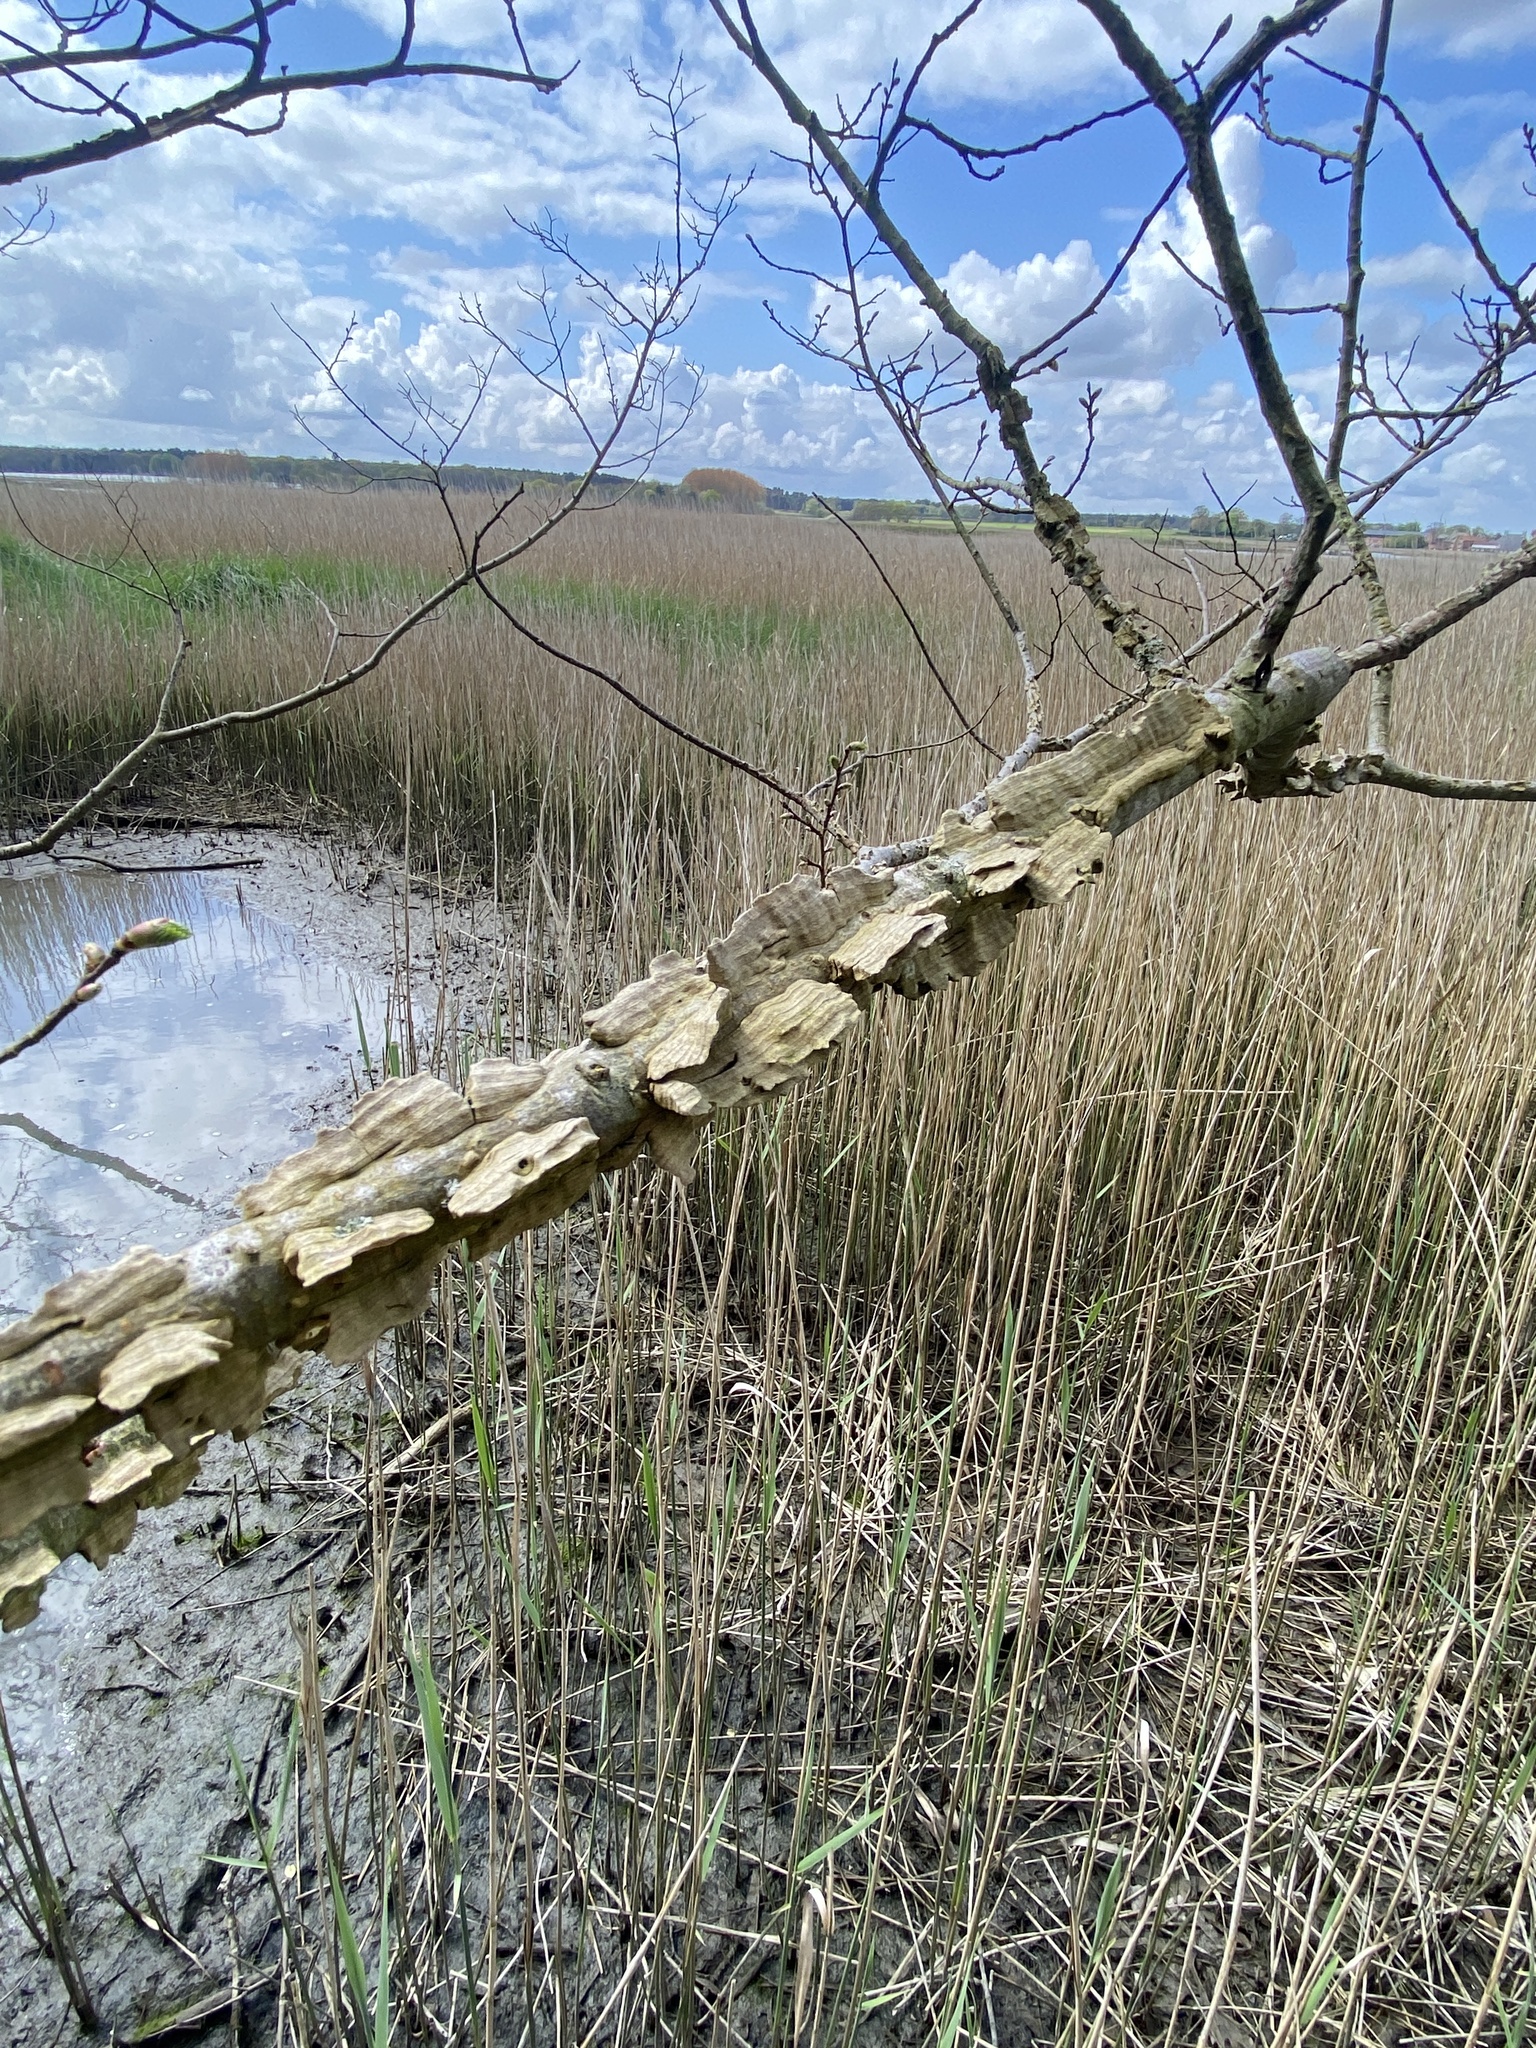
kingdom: Plantae
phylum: Tracheophyta
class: Magnoliopsida
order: Rosales
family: Ulmaceae
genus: Ulmus
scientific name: Ulmus minor
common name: Small-leaved elm
